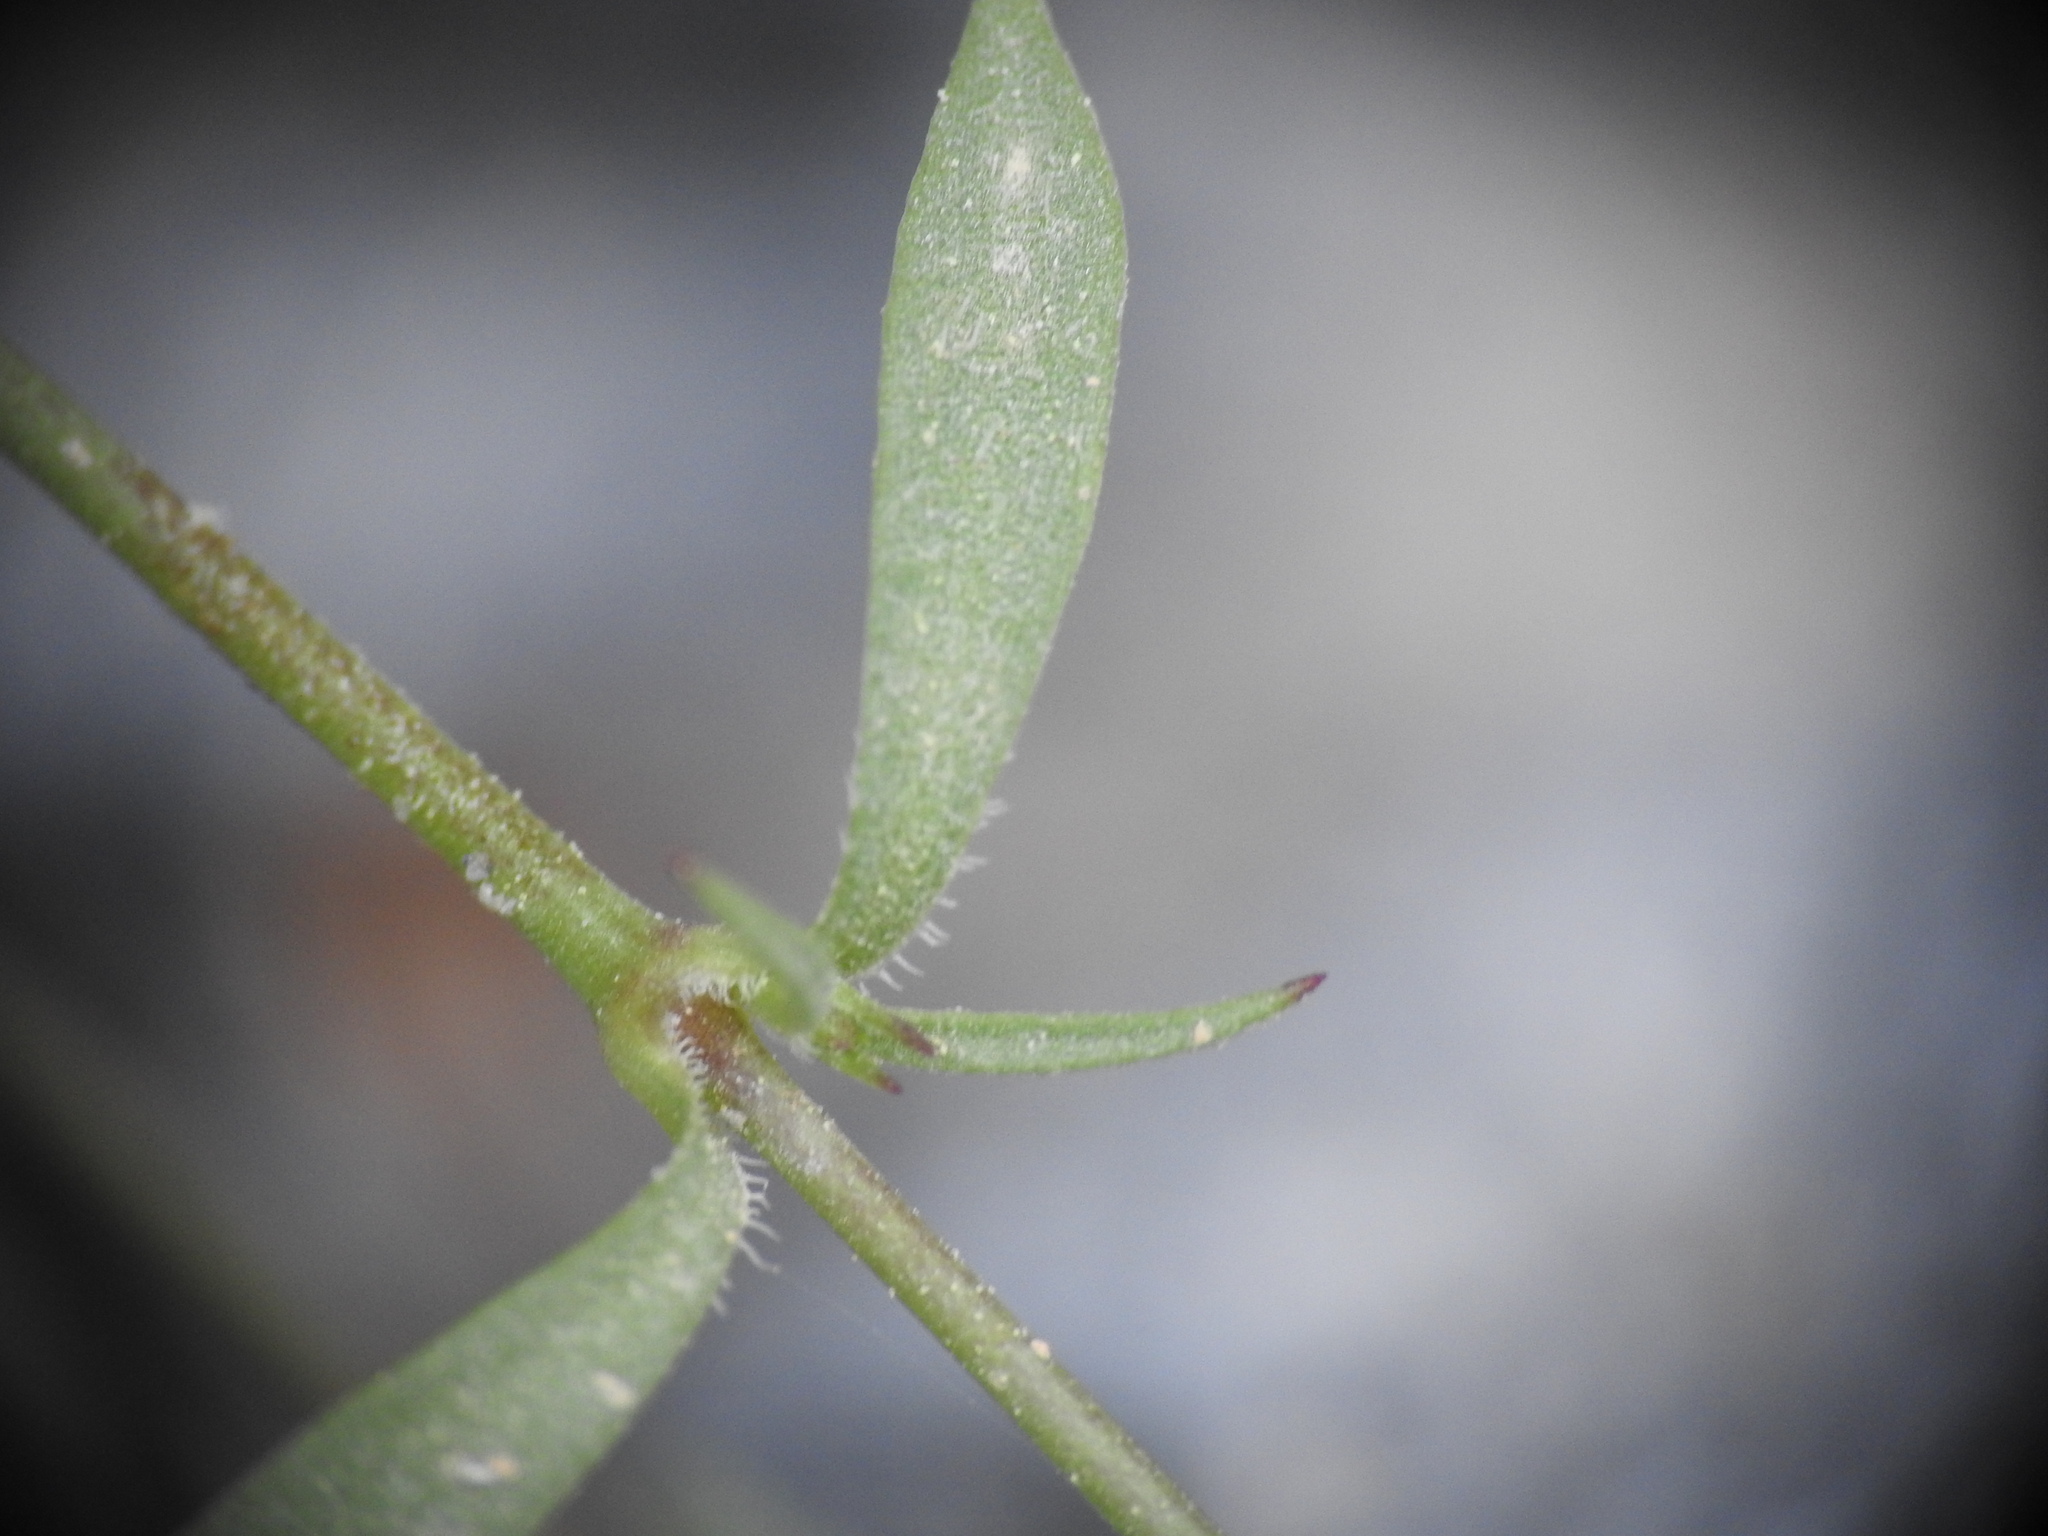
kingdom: Plantae
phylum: Tracheophyta
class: Magnoliopsida
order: Caryophyllales
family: Caryophyllaceae
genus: Silene
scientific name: Silene pinetorum
